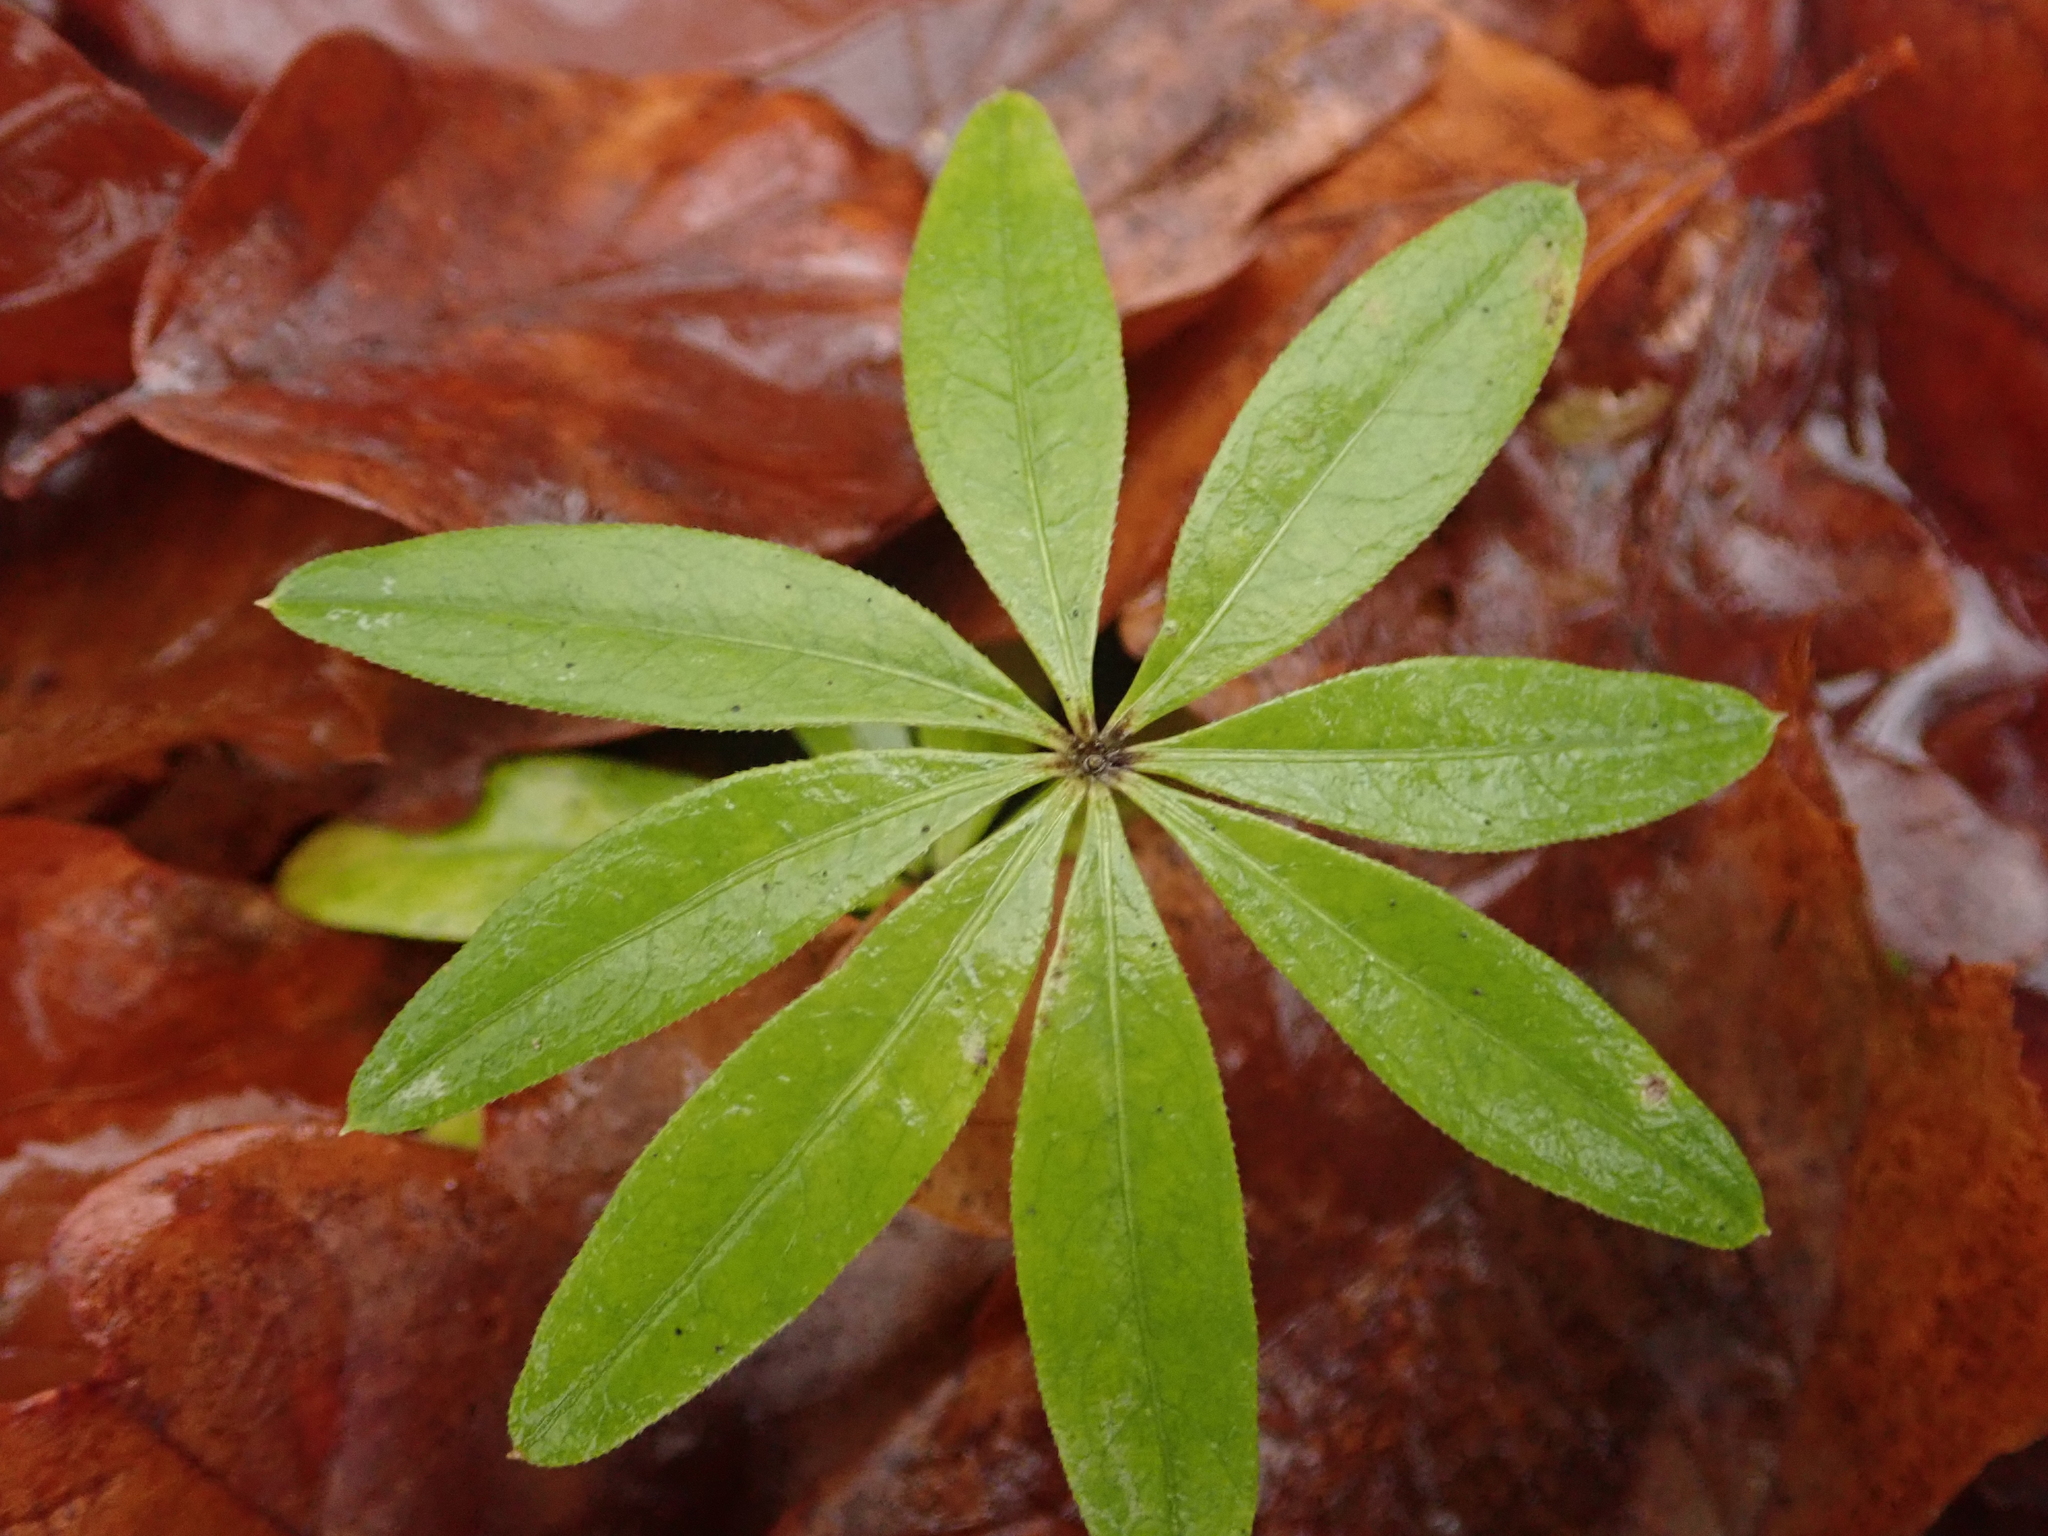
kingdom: Plantae
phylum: Tracheophyta
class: Magnoliopsida
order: Gentianales
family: Rubiaceae
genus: Galium
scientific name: Galium odoratum
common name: Sweet woodruff
